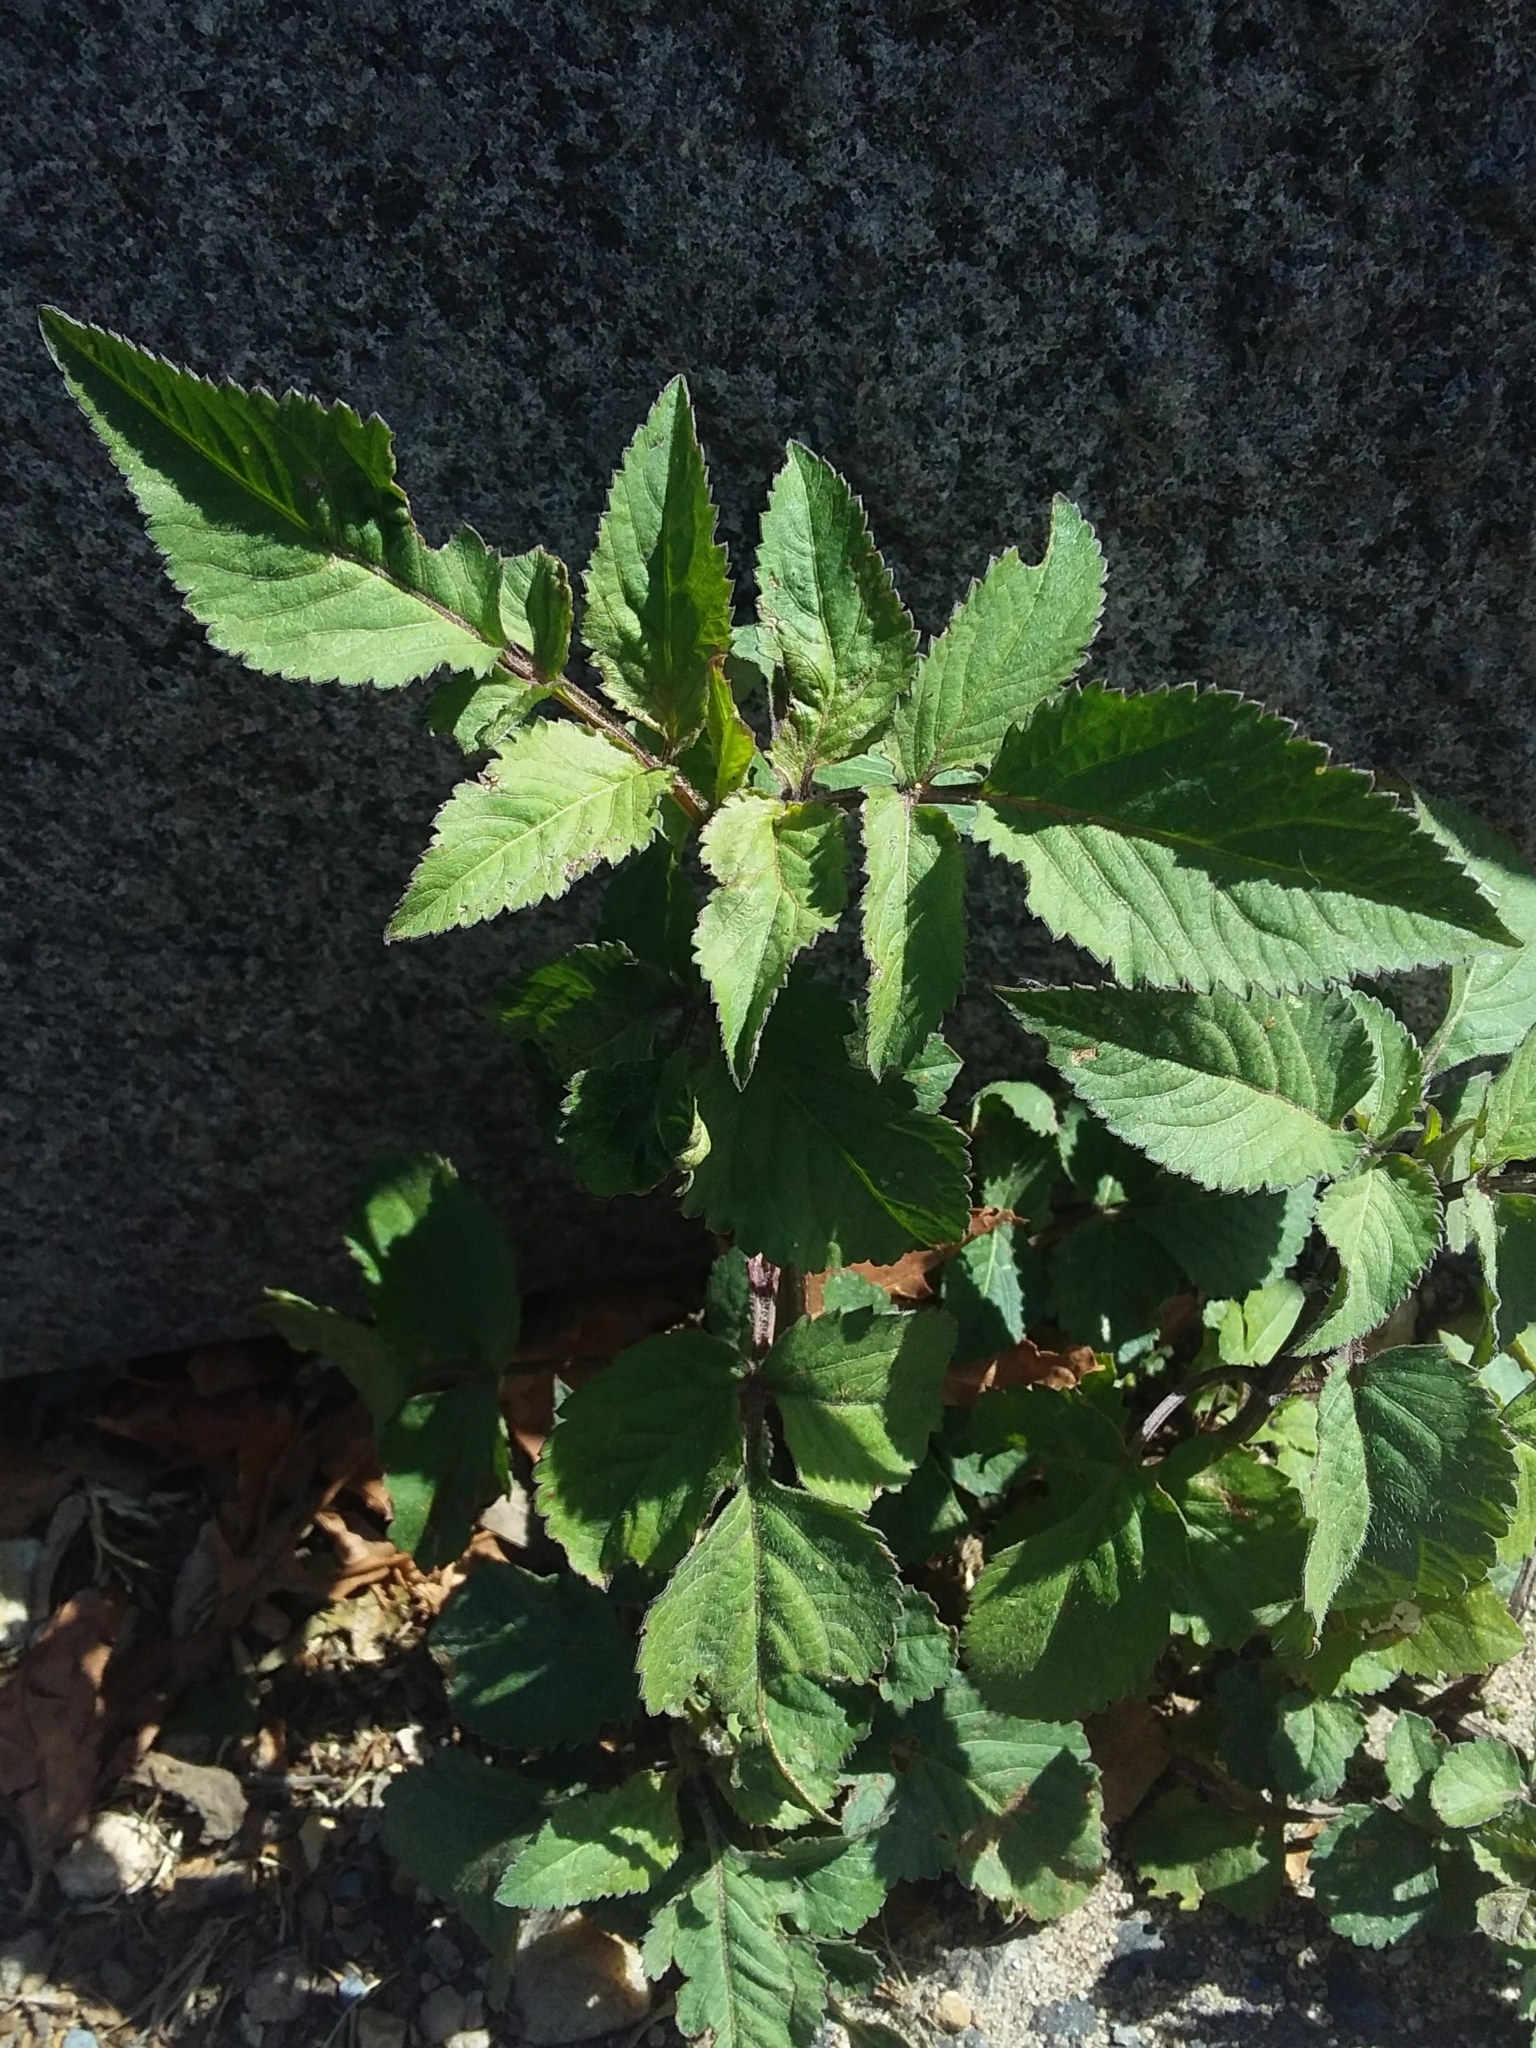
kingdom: Plantae
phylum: Tracheophyta
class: Magnoliopsida
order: Asterales
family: Asteraceae
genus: Bidens
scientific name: Bidens pilosa
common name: Black-jack
